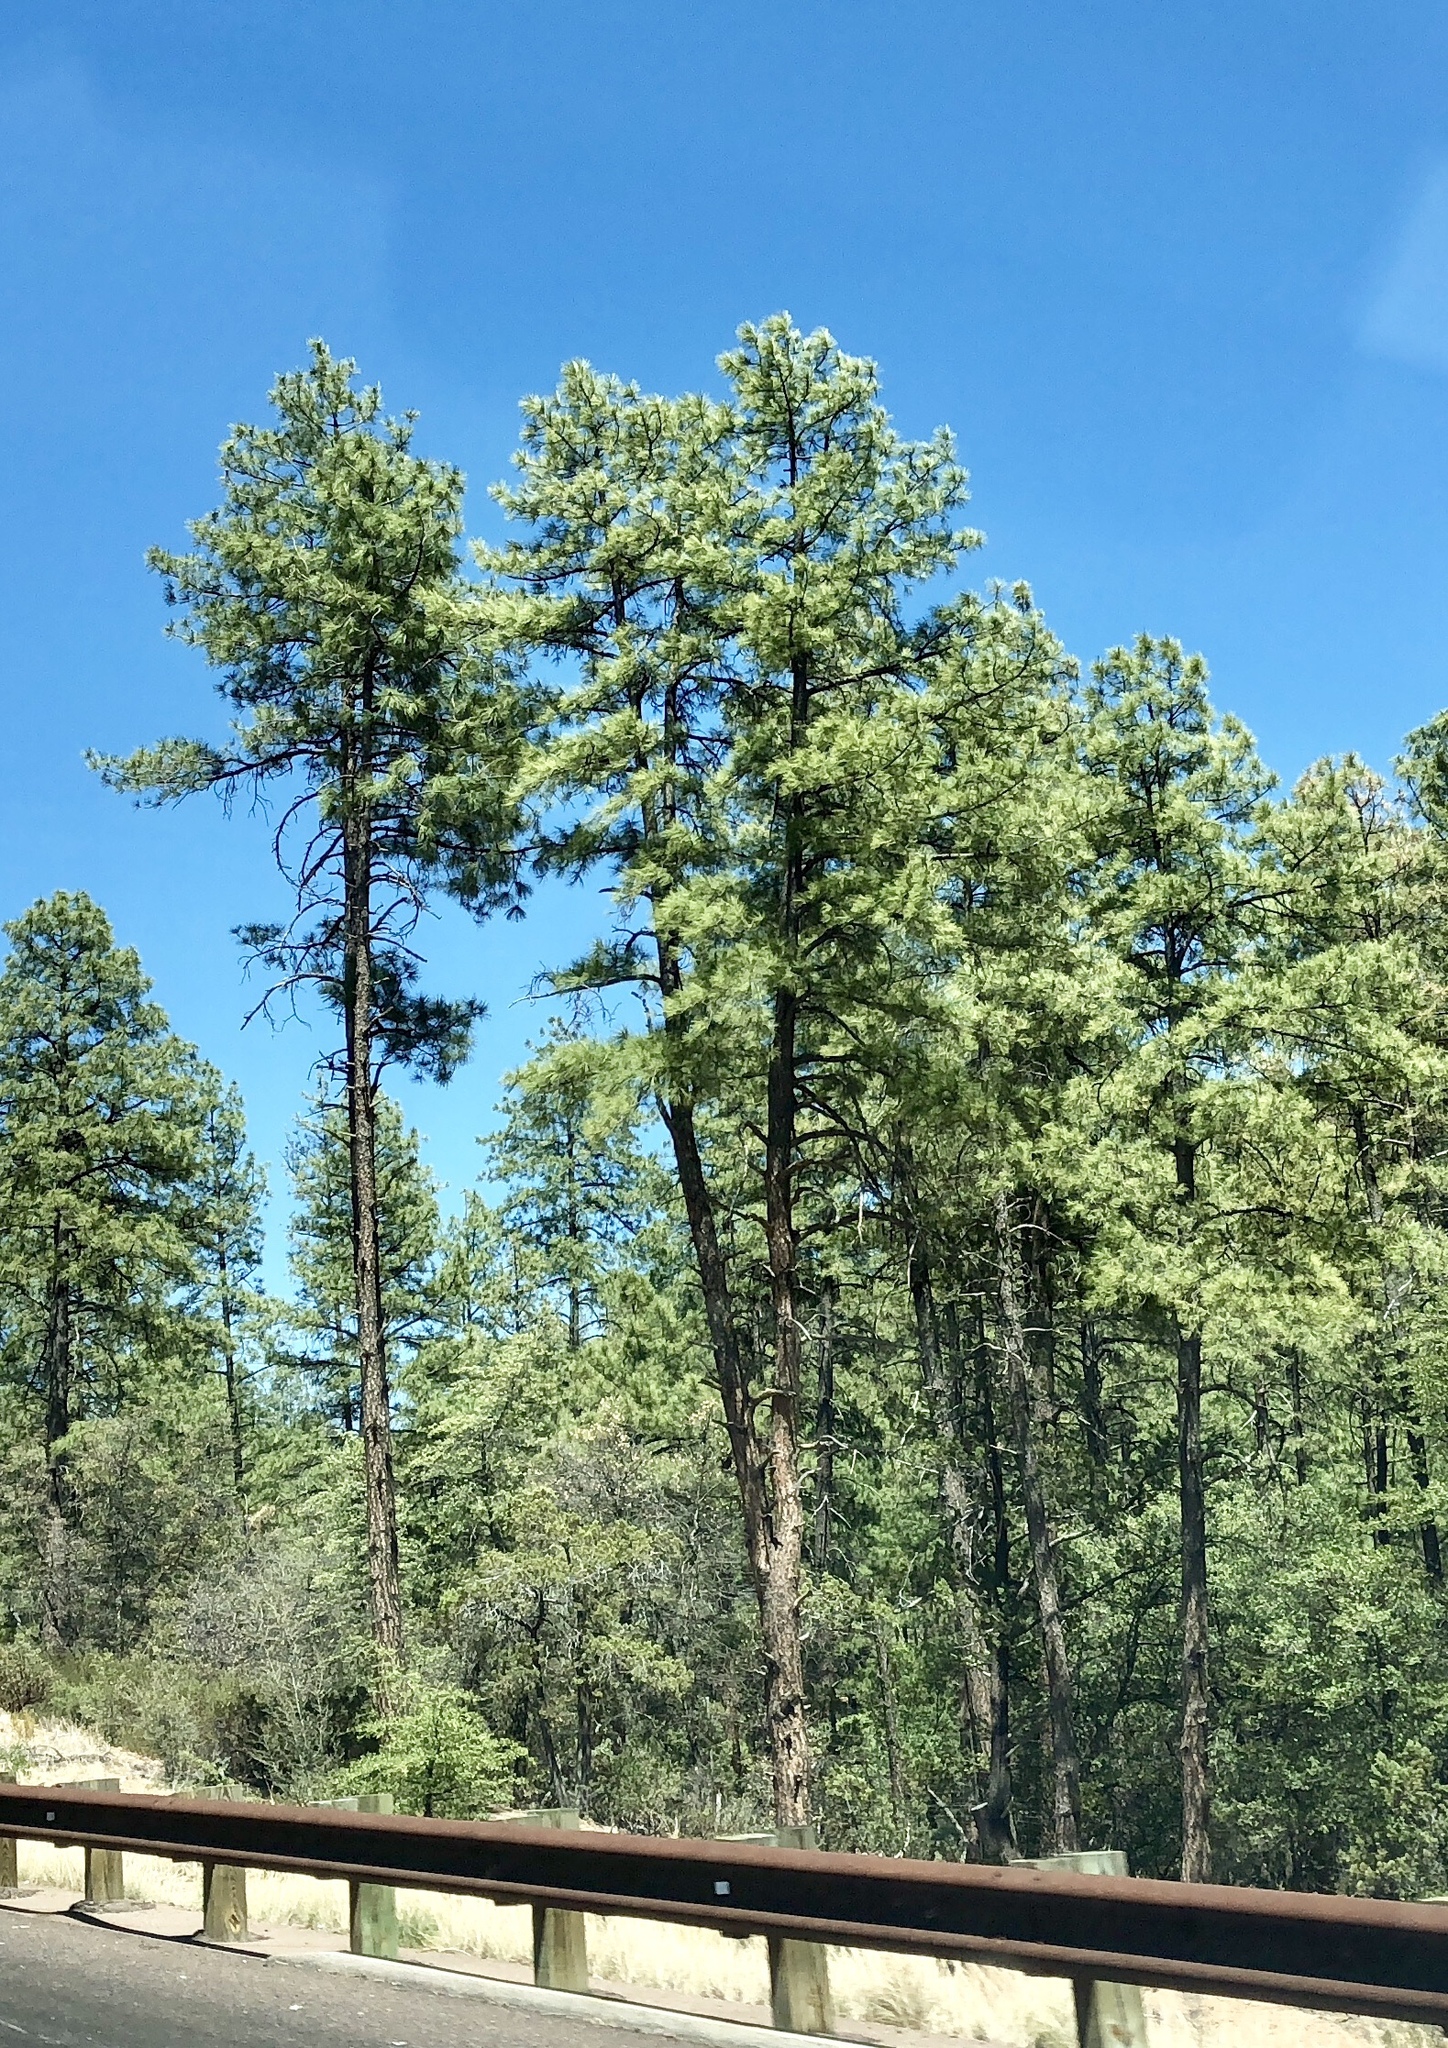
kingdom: Plantae
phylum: Tracheophyta
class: Pinopsida
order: Pinales
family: Pinaceae
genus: Pinus
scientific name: Pinus ponderosa
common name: Western yellow-pine
